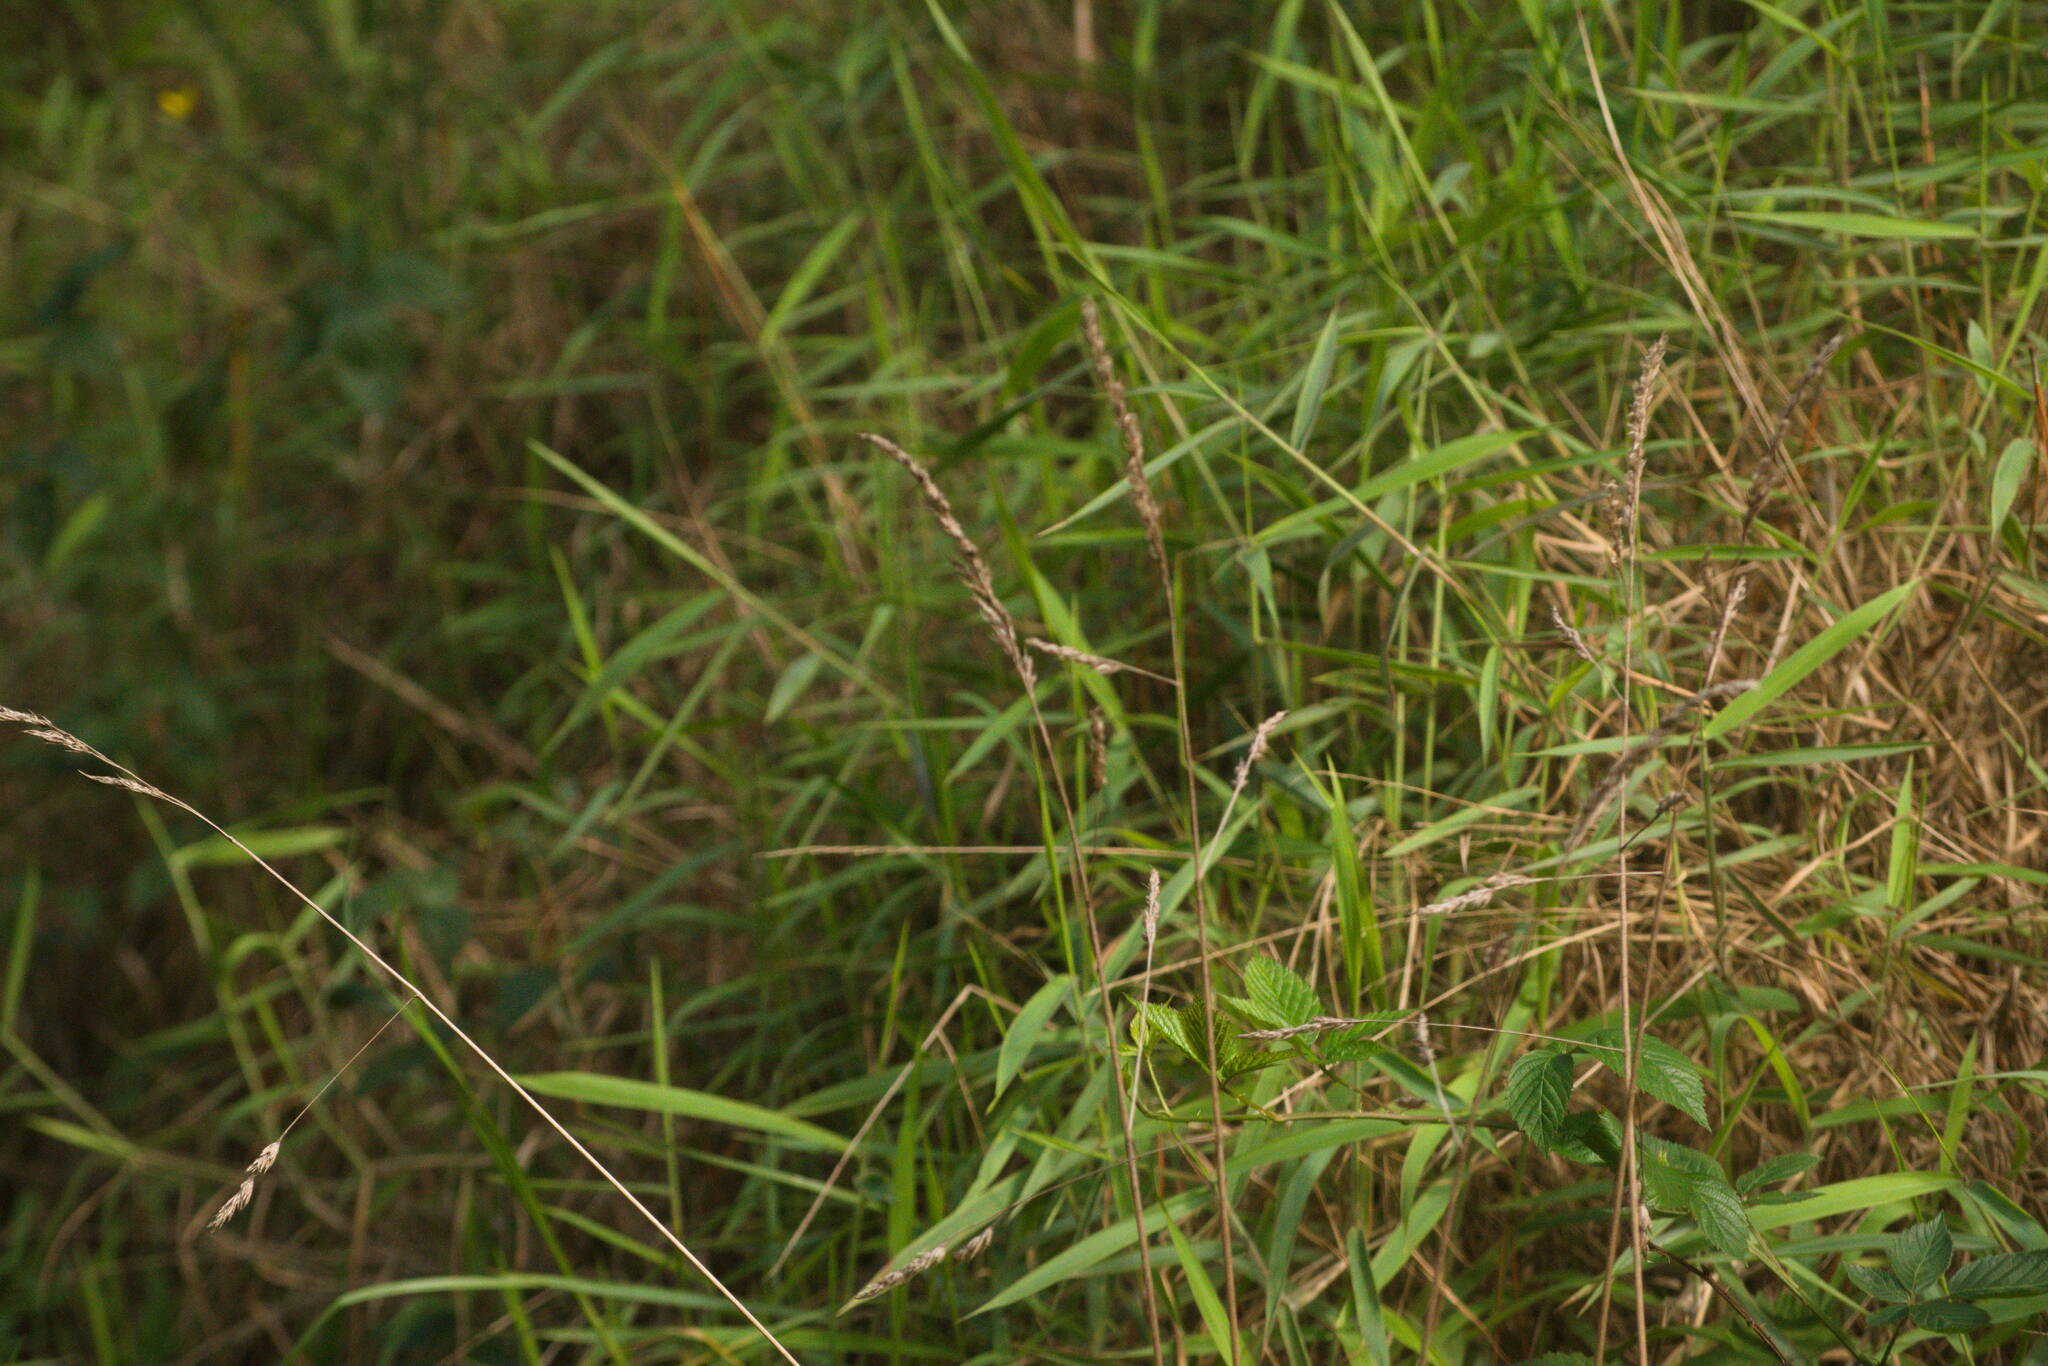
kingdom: Plantae
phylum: Tracheophyta
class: Liliopsida
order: Poales
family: Poaceae
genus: Dactylis
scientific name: Dactylis glomerata
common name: Orchardgrass
